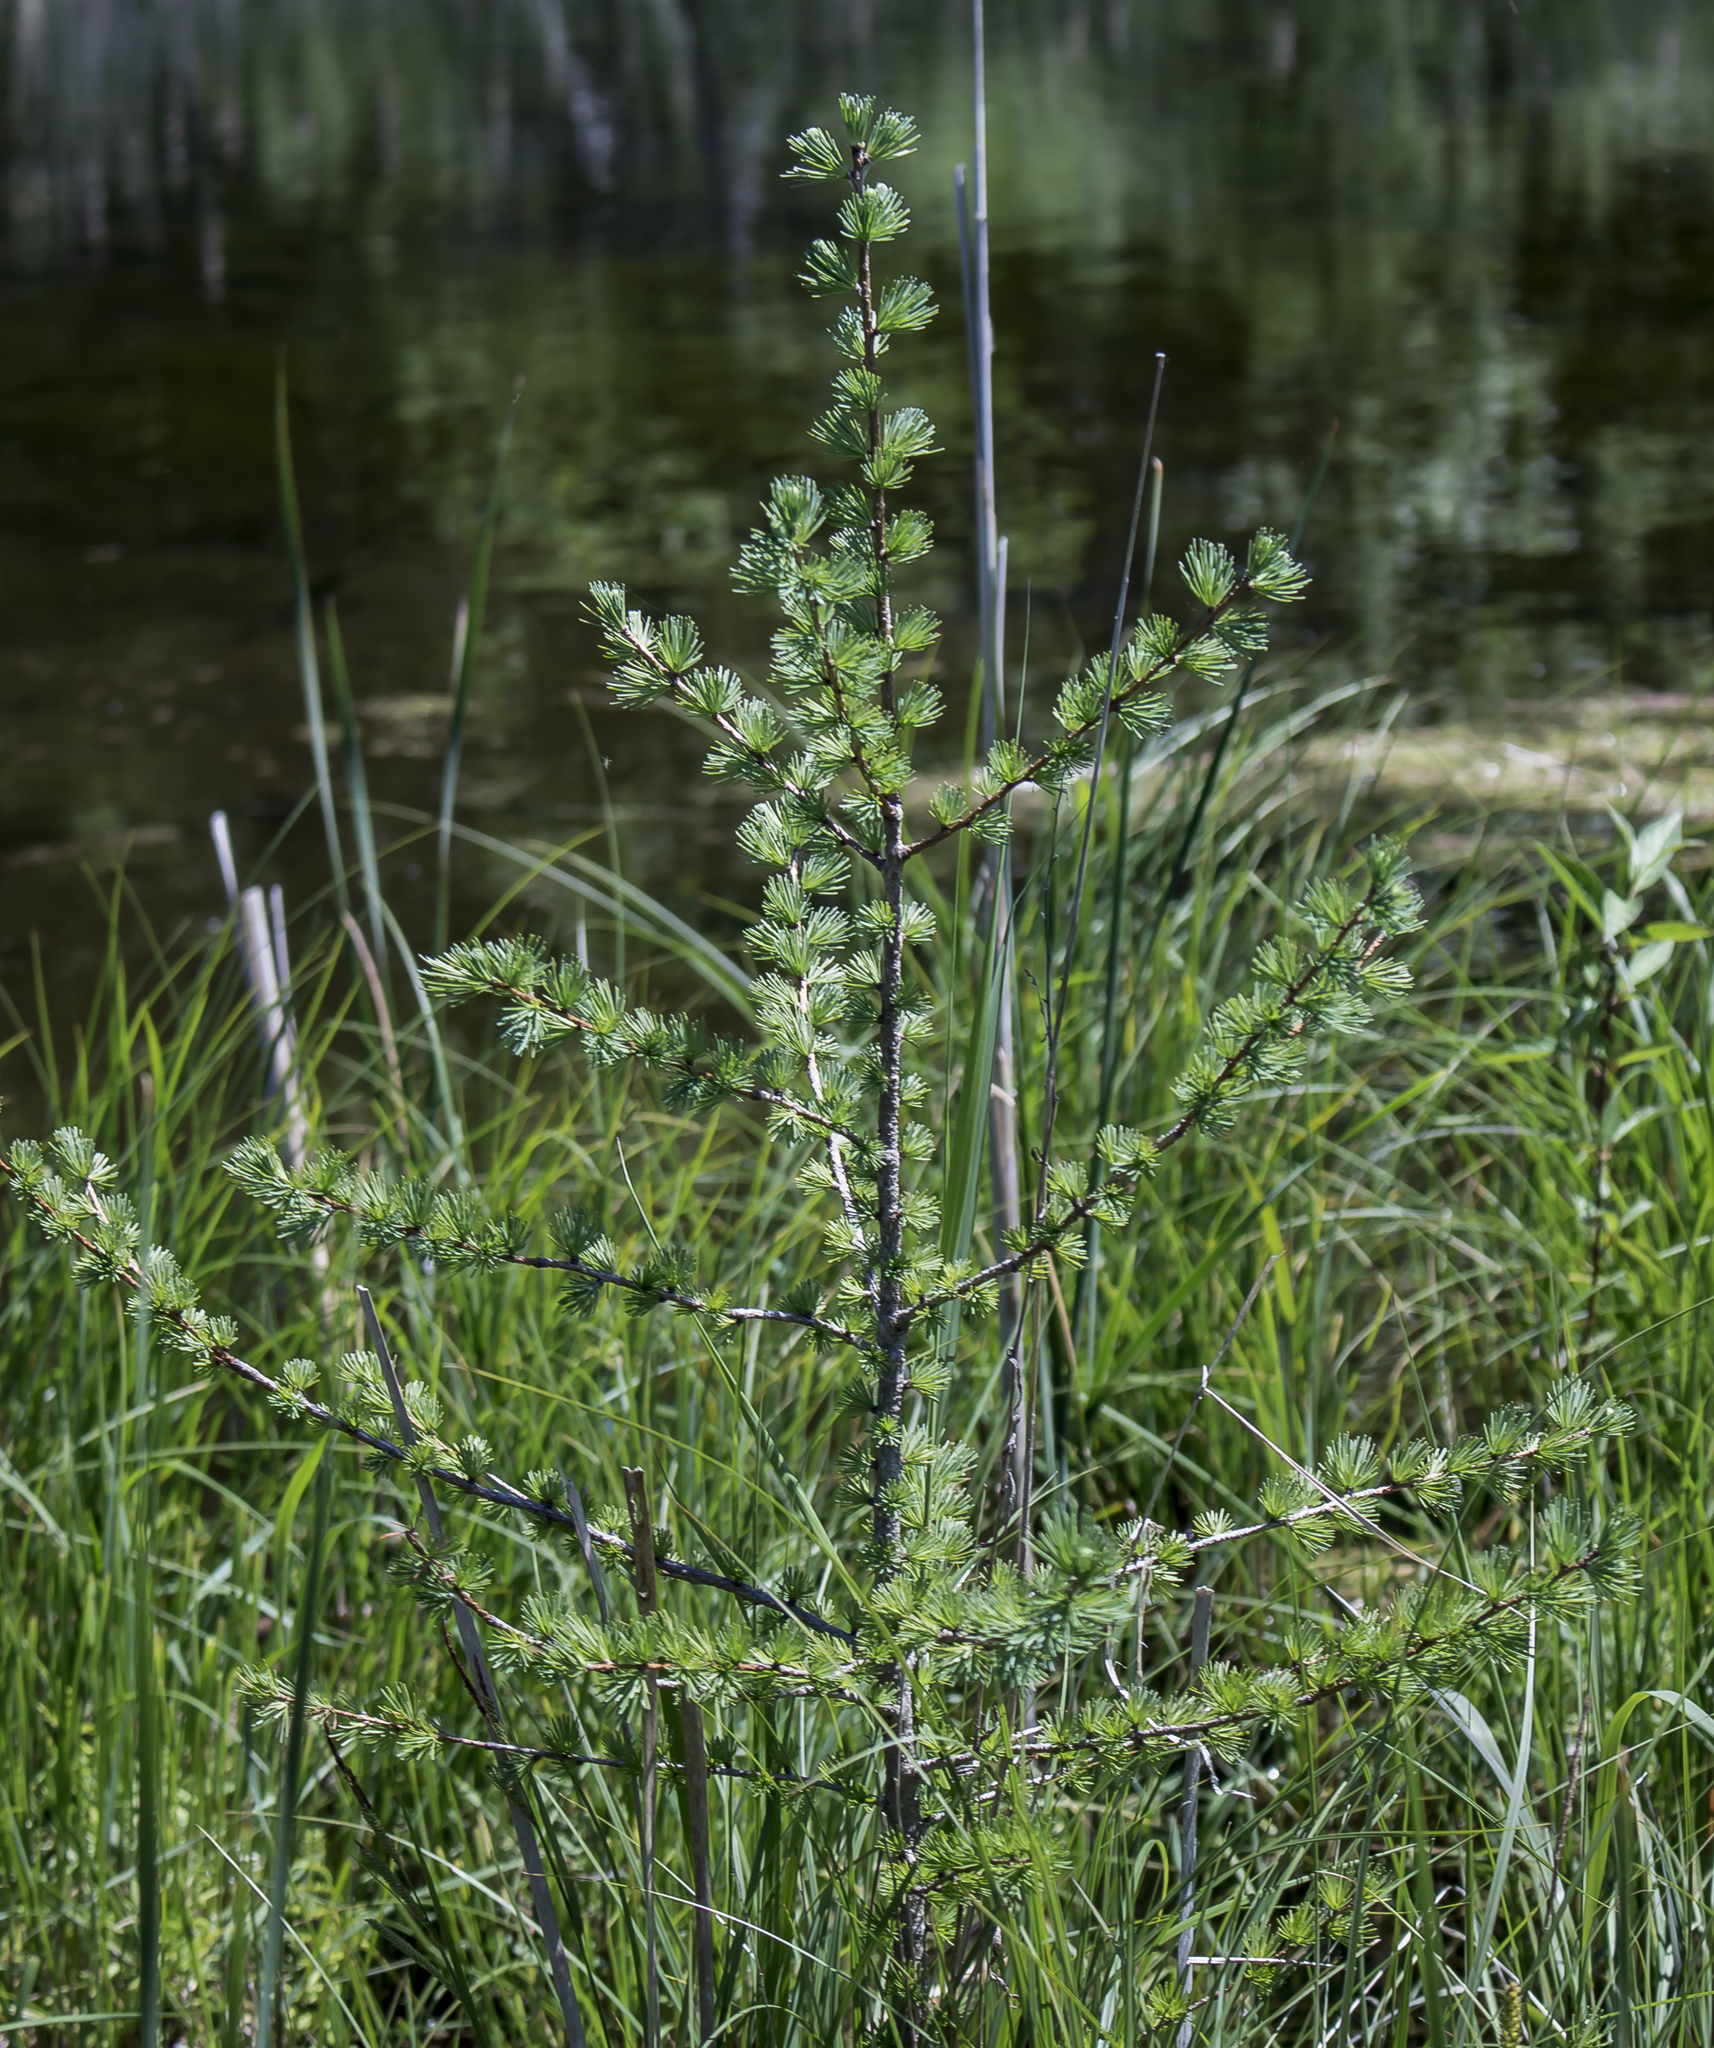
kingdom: Plantae
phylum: Tracheophyta
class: Pinopsida
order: Pinales
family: Pinaceae
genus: Larix
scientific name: Larix laricina
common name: American larch
